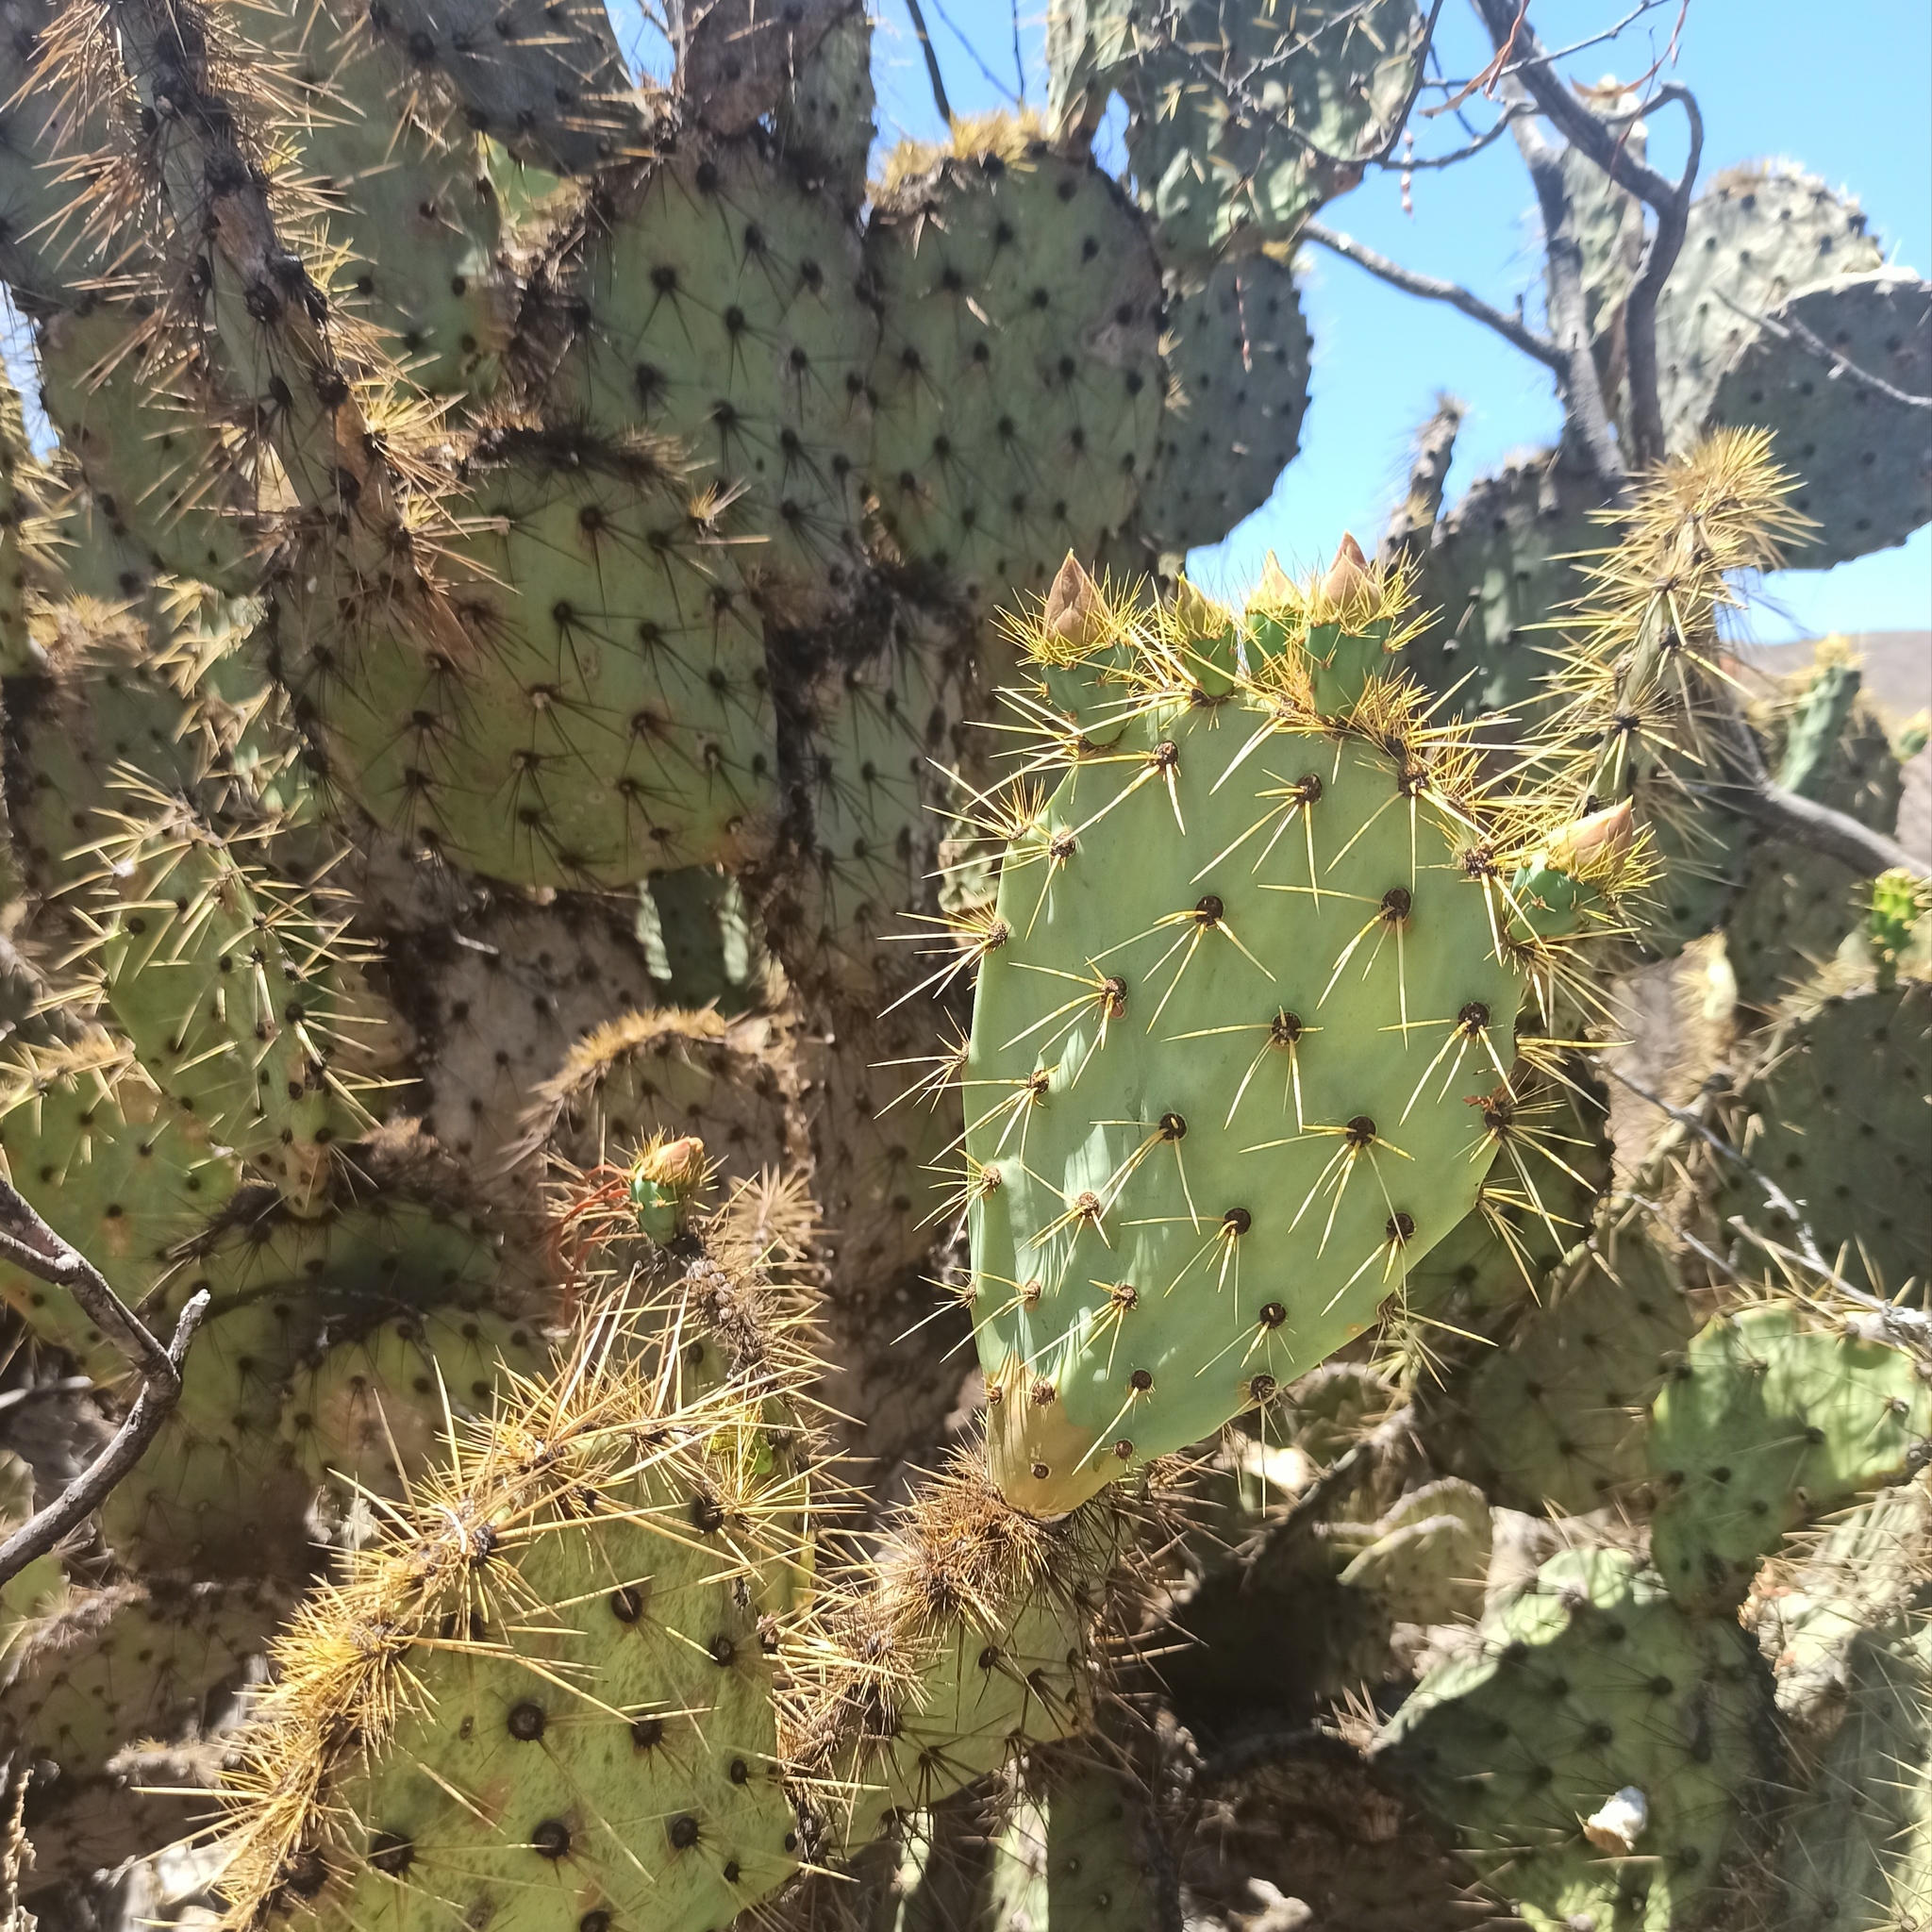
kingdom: Plantae
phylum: Tracheophyta
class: Magnoliopsida
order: Caryophyllales
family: Cactaceae
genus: Opuntia
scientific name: Opuntia engelmannii
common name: Cactus-apple
